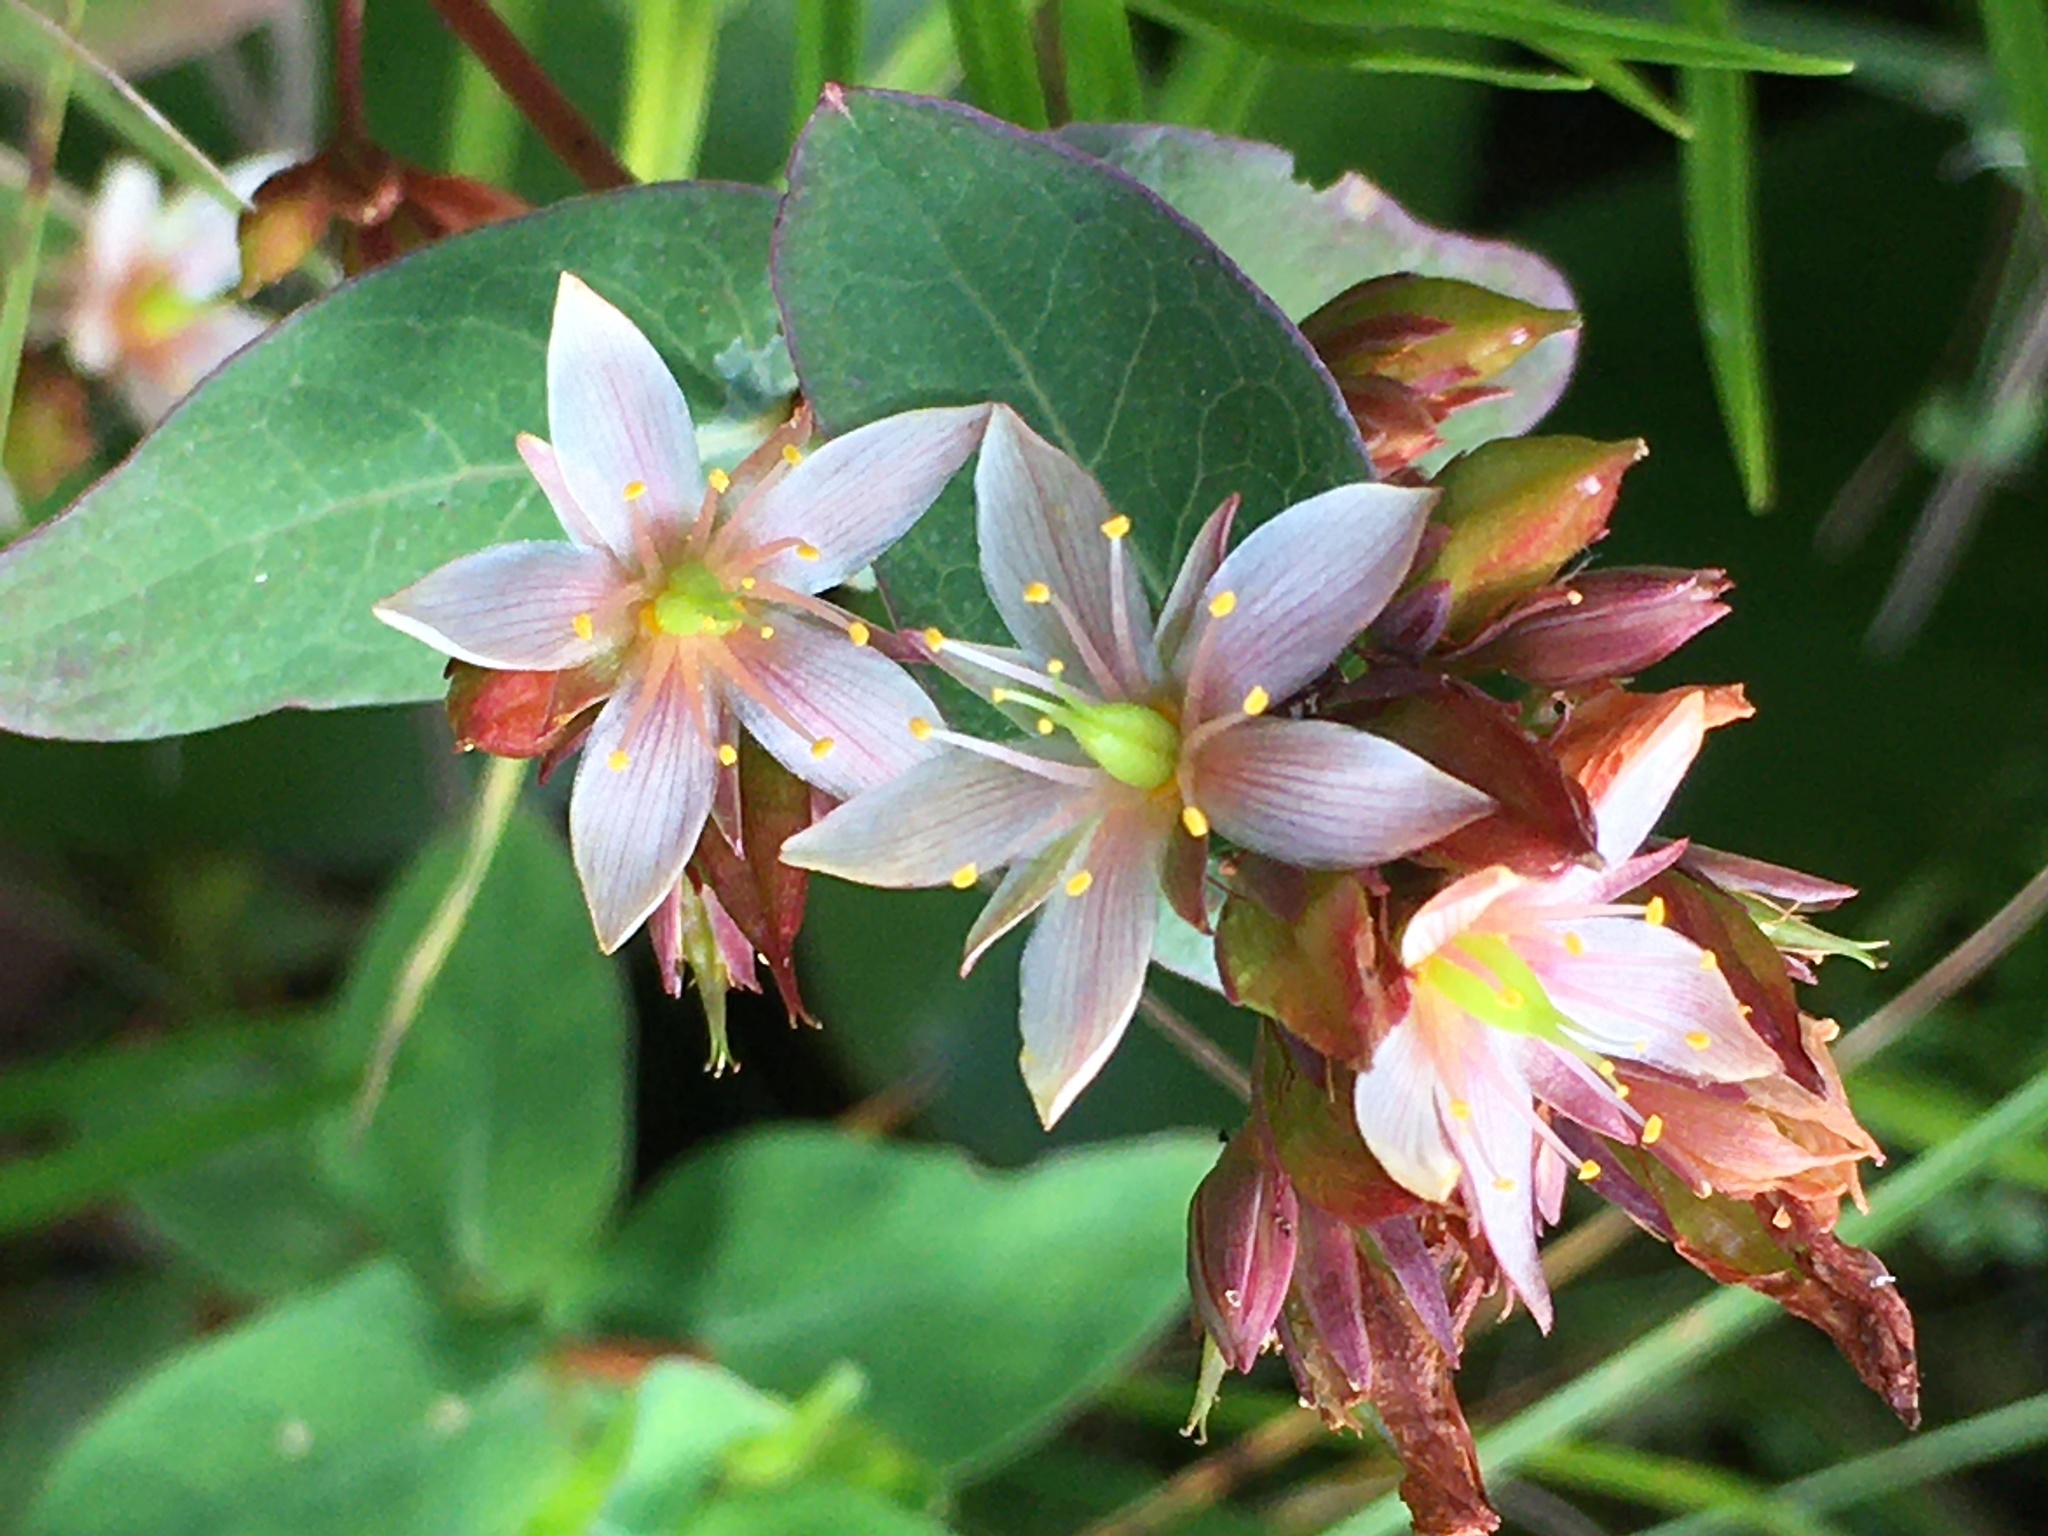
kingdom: Plantae
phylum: Tracheophyta
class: Magnoliopsida
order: Malpighiales
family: Hypericaceae
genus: Triadenum
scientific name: Triadenum virginicum
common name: Marsh st. john's-wort
